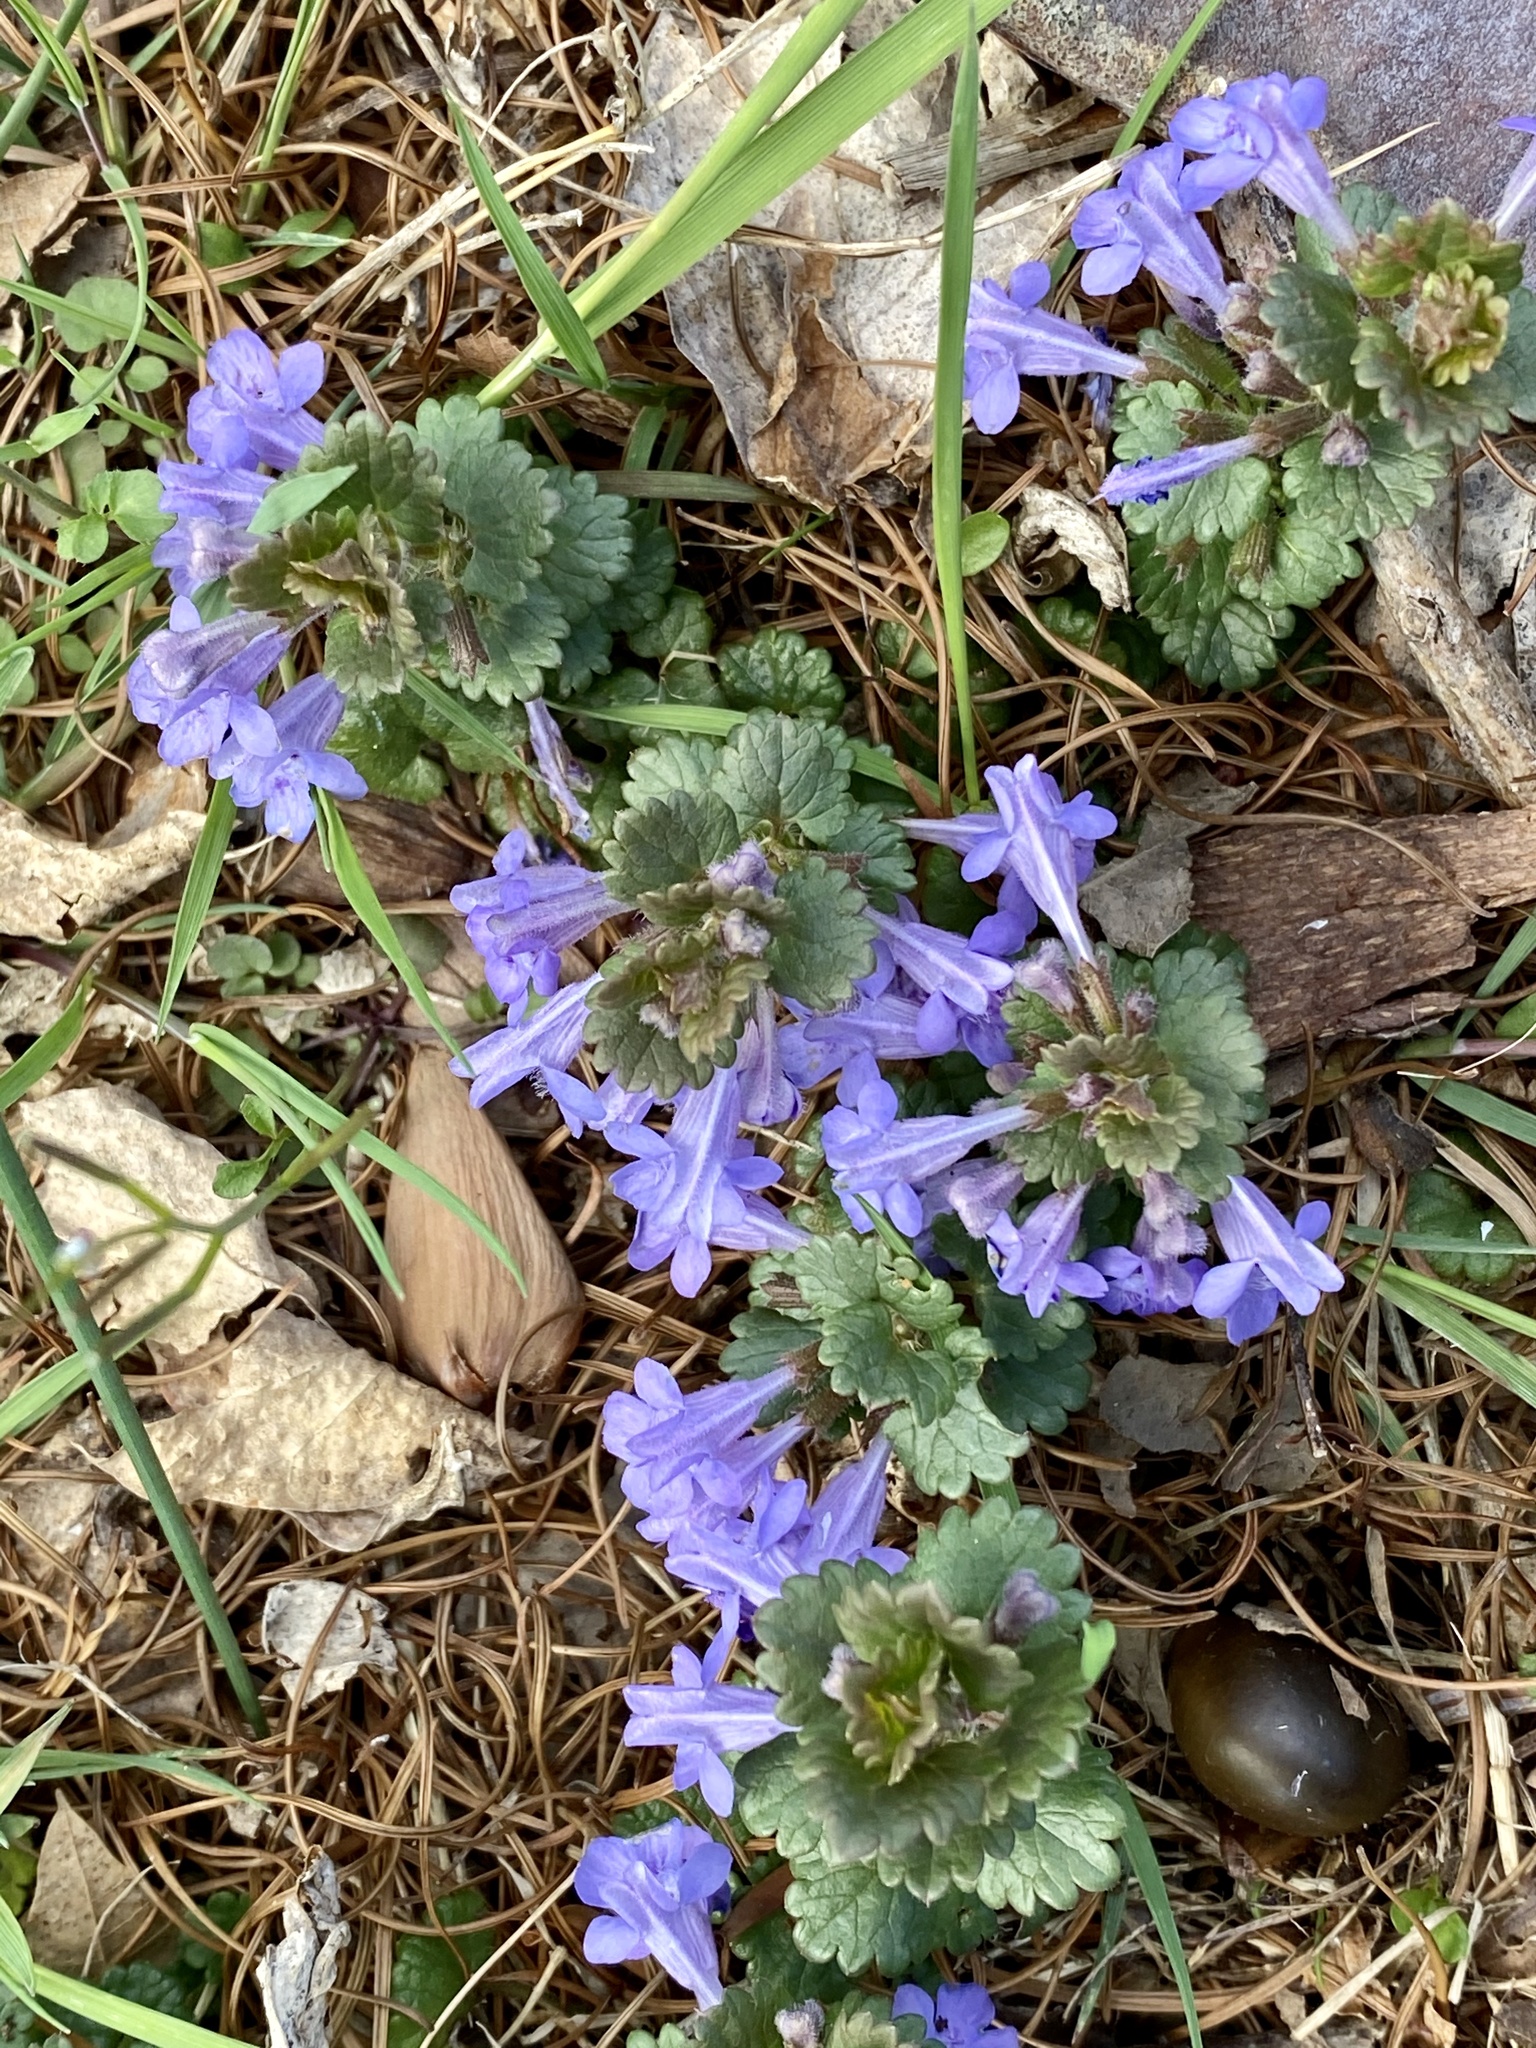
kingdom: Plantae
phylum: Tracheophyta
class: Magnoliopsida
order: Lamiales
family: Lamiaceae
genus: Glechoma
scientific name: Glechoma hederacea
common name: Ground ivy
